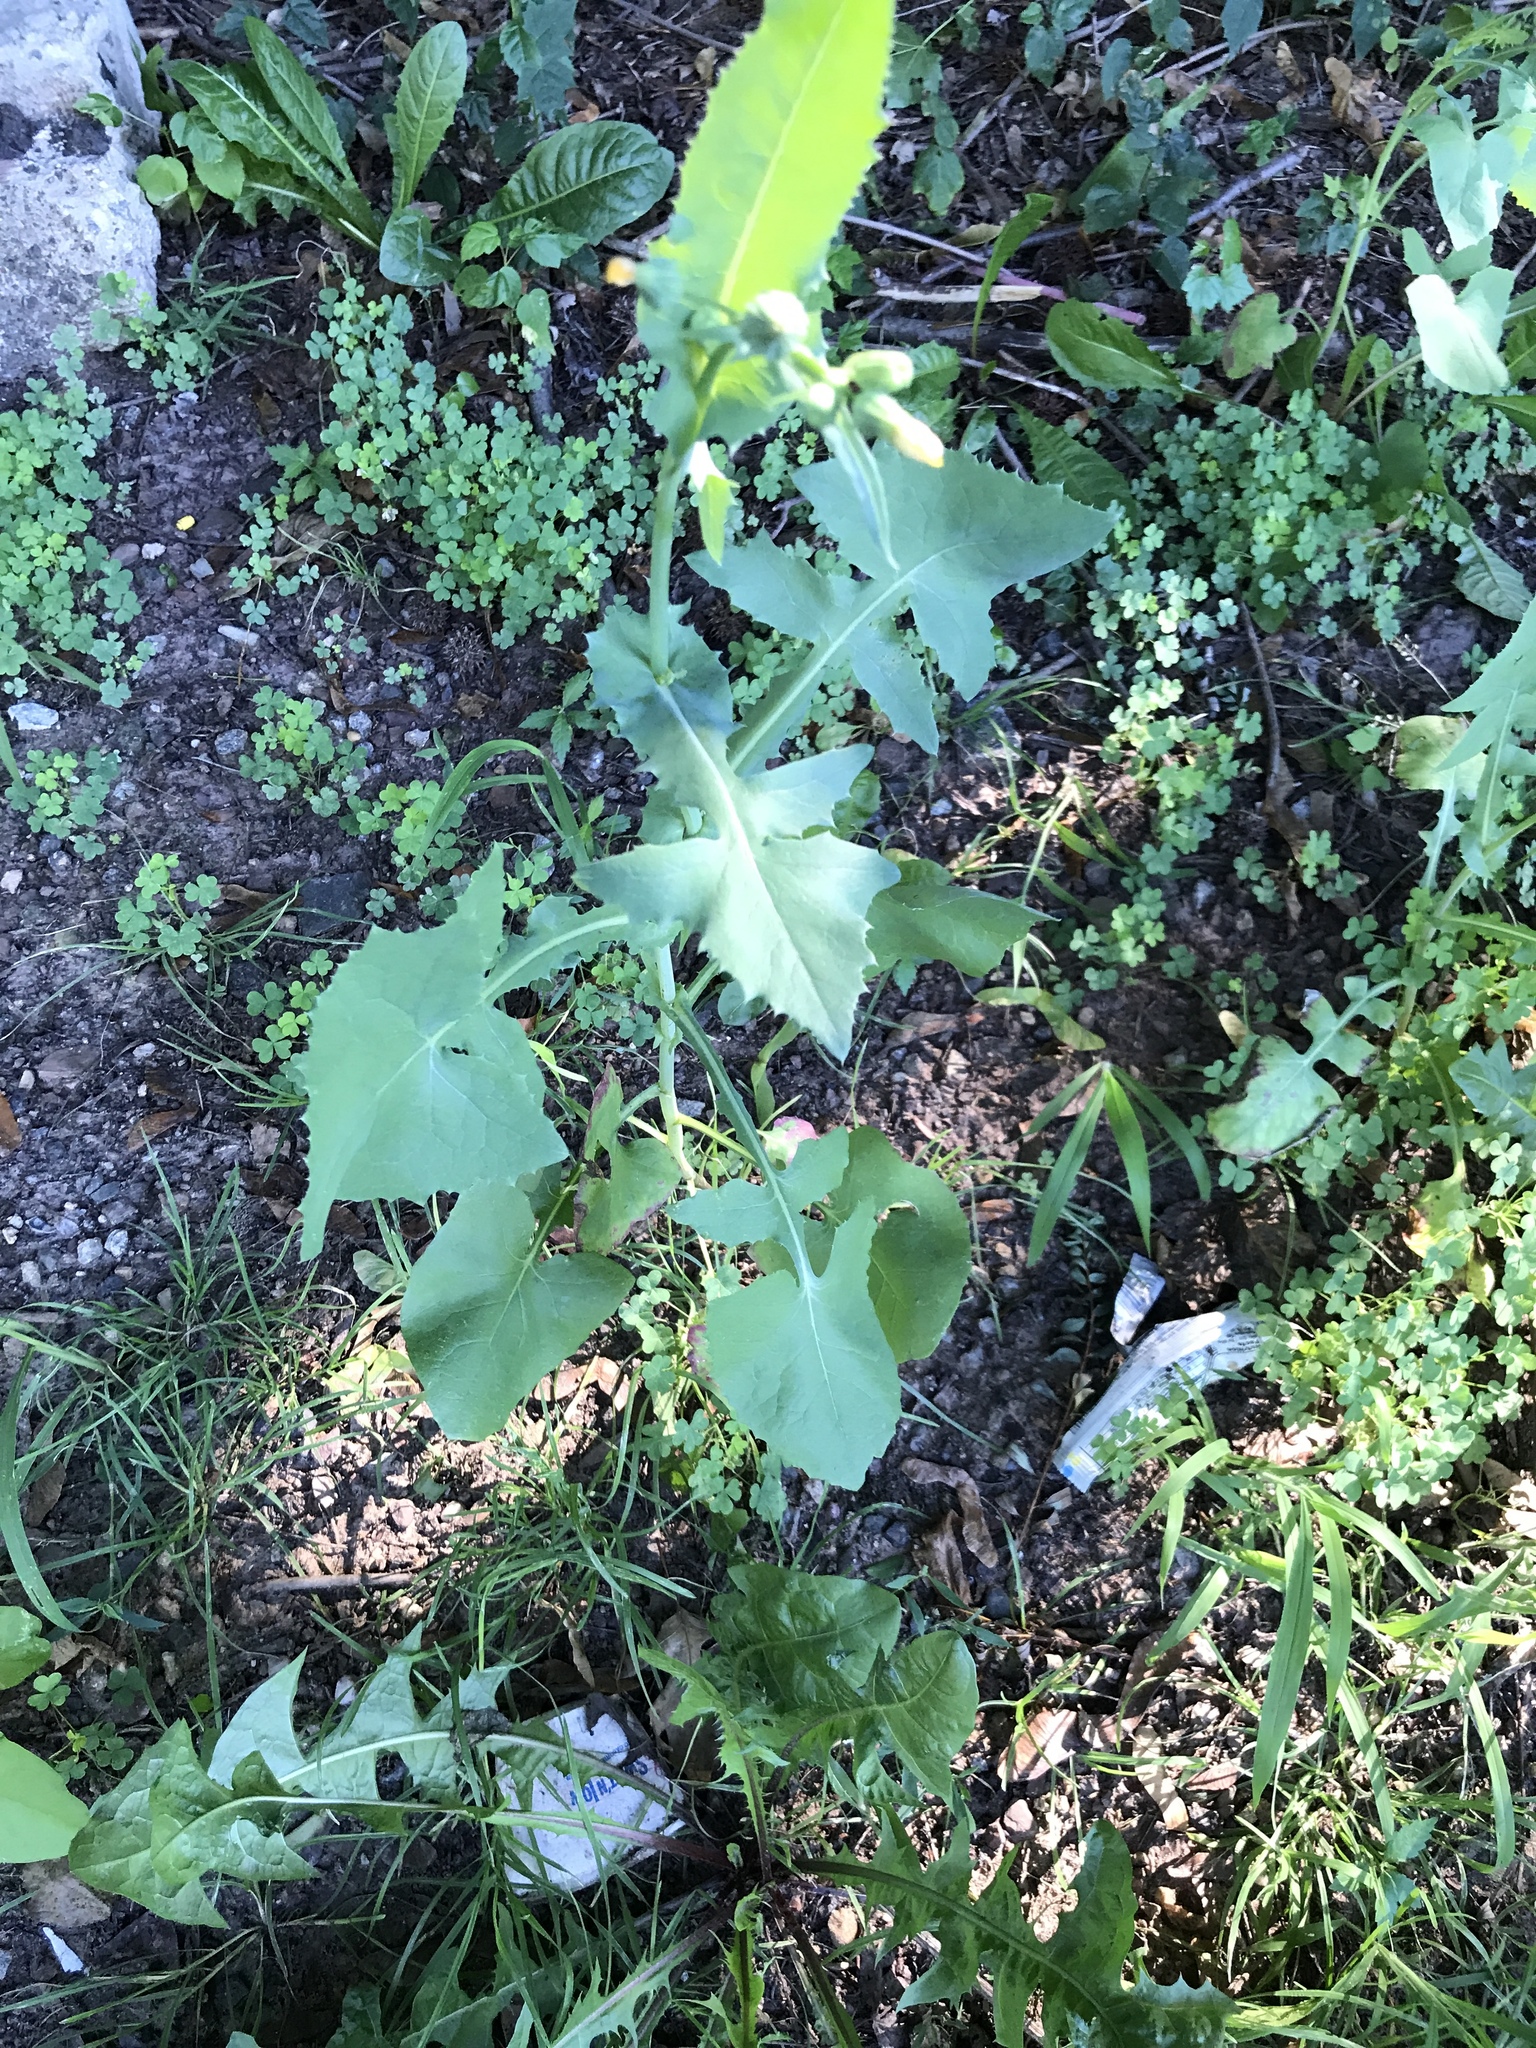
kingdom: Plantae
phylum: Tracheophyta
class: Magnoliopsida
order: Asterales
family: Asteraceae
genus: Sonchus
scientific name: Sonchus oleraceus
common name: Common sowthistle
